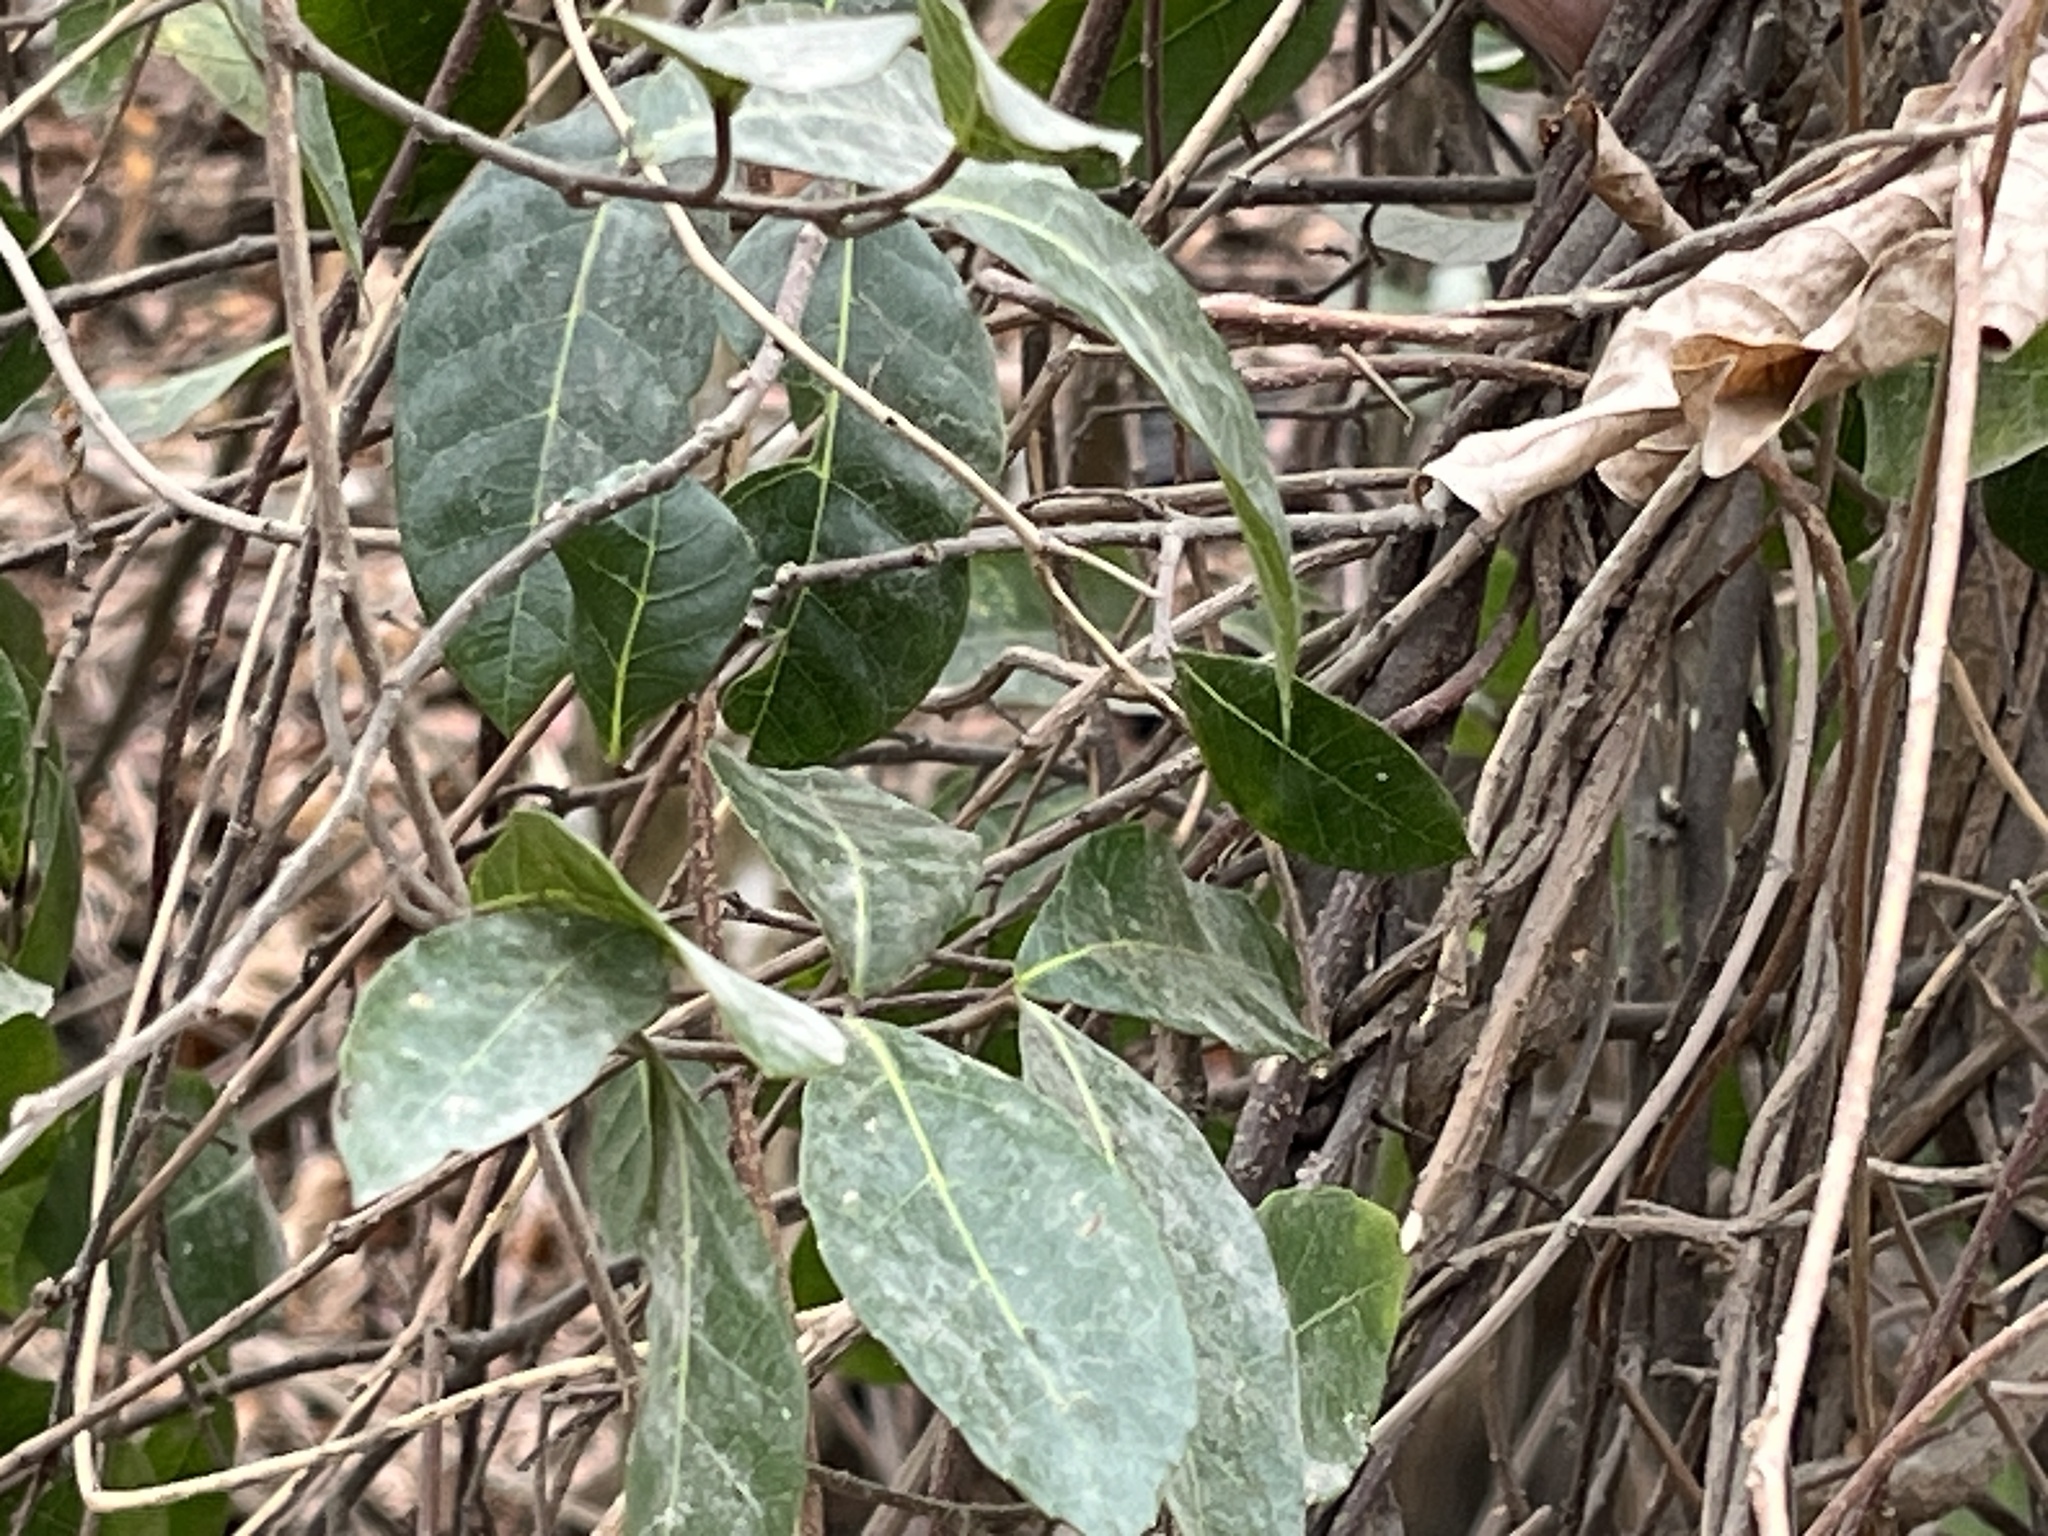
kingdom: Plantae
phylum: Tracheophyta
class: Magnoliopsida
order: Rosales
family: Moraceae
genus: Malaisia
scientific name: Malaisia scandens
